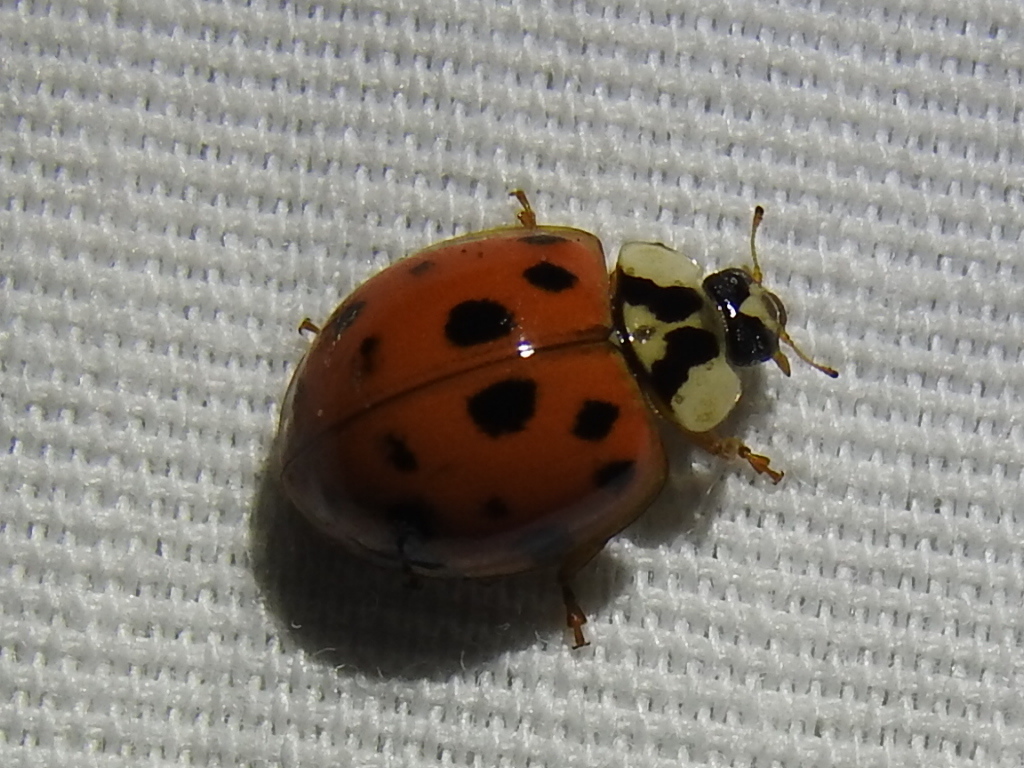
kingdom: Animalia
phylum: Arthropoda
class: Insecta
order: Coleoptera
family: Coccinellidae
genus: Harmonia
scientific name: Harmonia axyridis
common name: Harlequin ladybird
